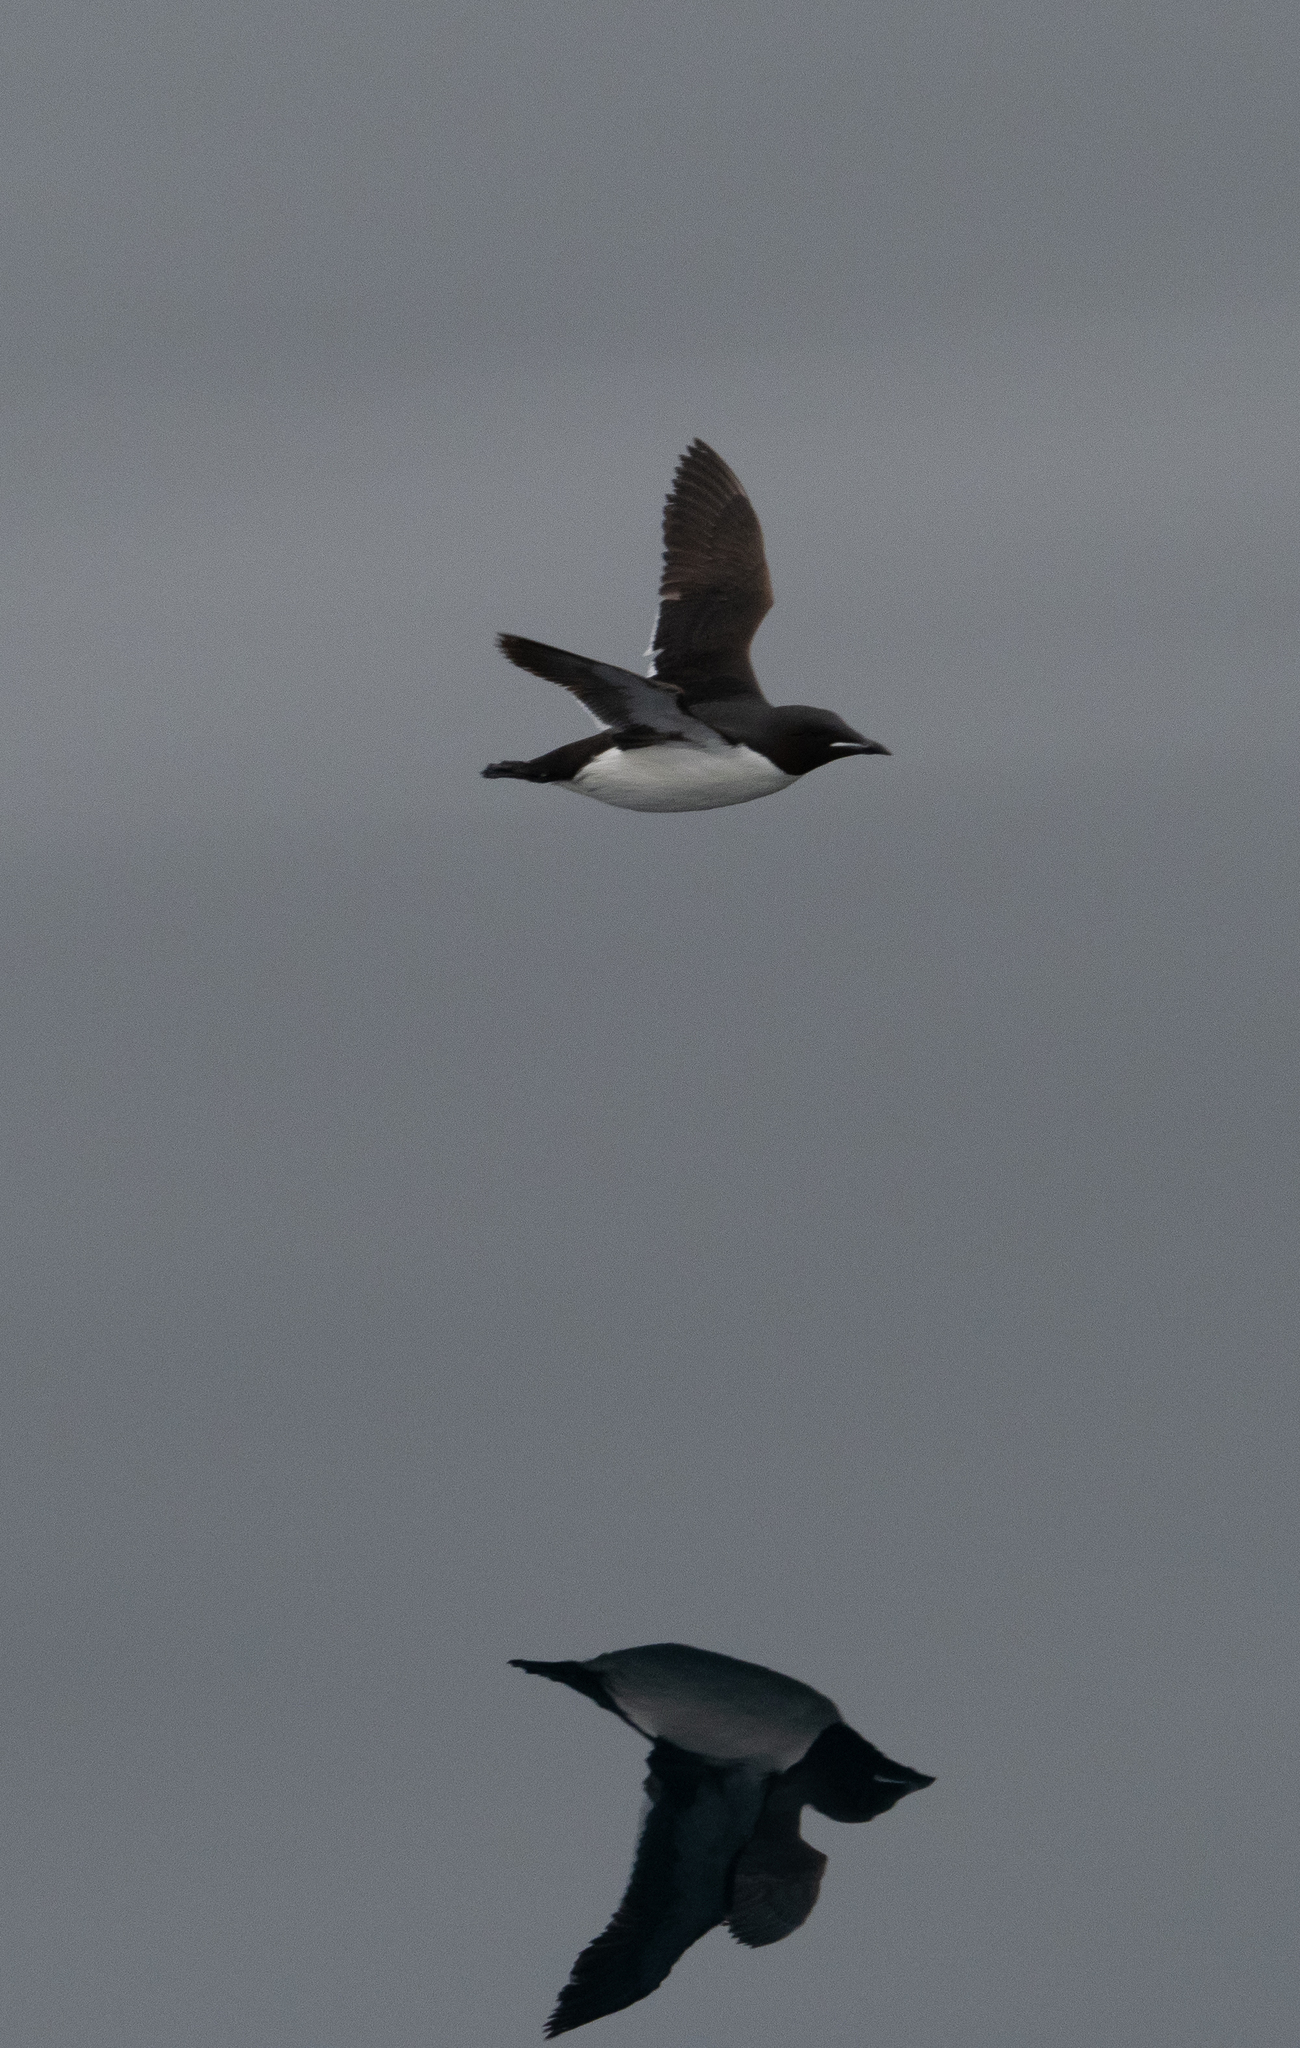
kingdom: Animalia
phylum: Chordata
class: Aves
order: Charadriiformes
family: Alcidae
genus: Uria
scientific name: Uria lomvia
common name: Thick-billed murre
